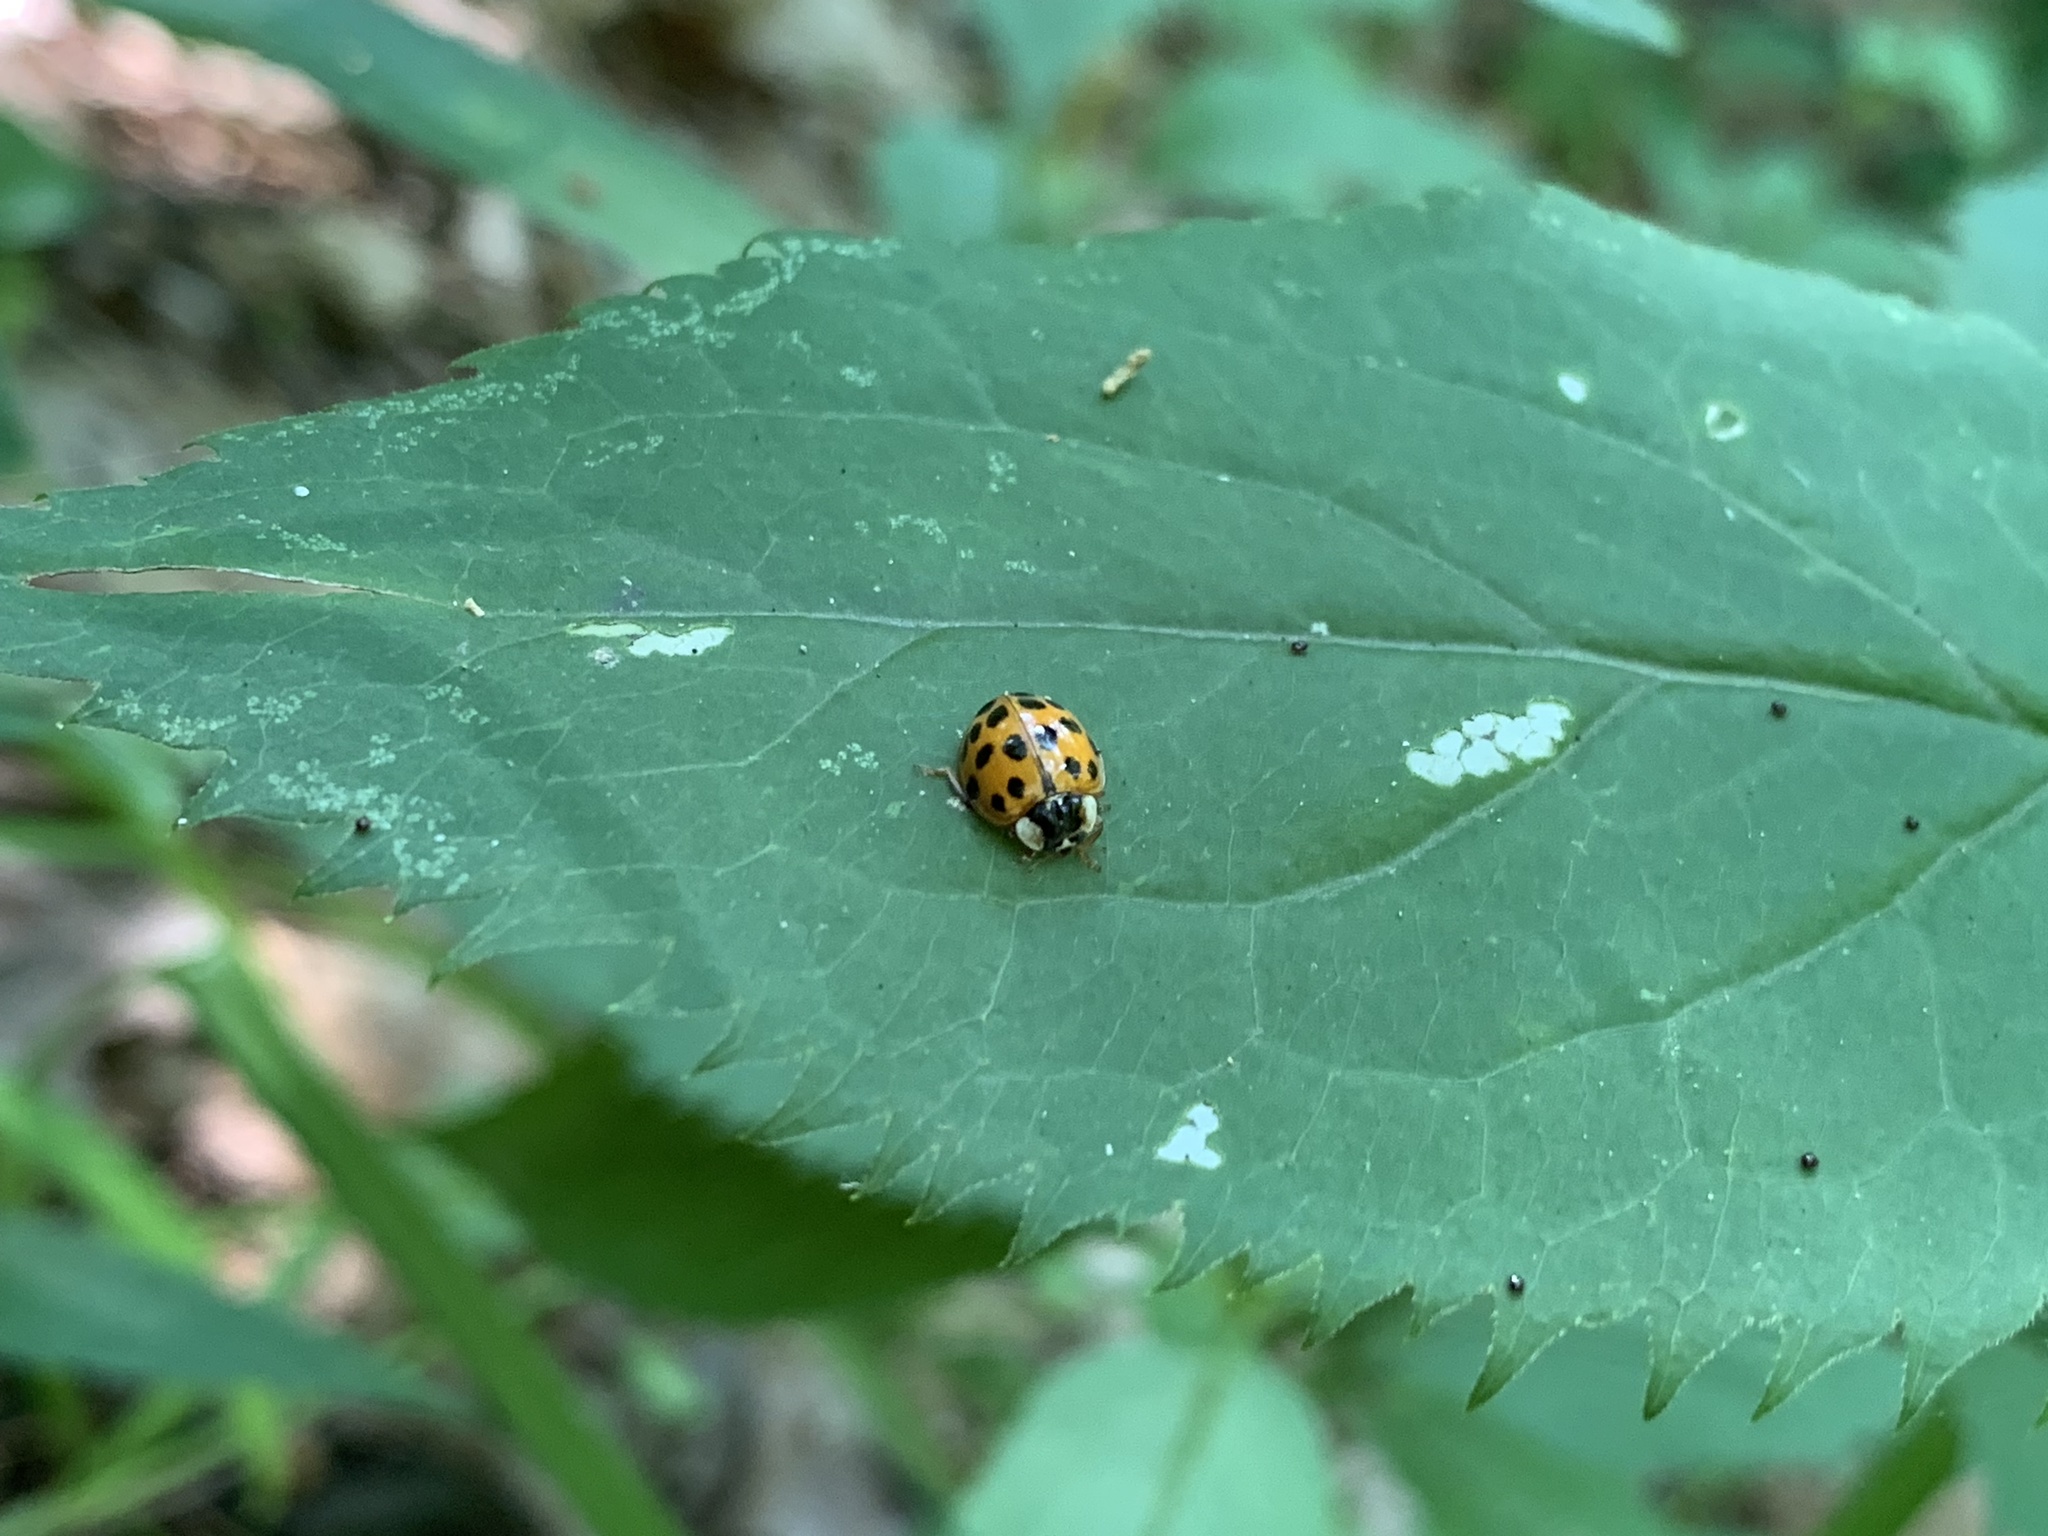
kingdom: Animalia
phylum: Arthropoda
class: Insecta
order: Coleoptera
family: Coccinellidae
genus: Harmonia
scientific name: Harmonia axyridis
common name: Harlequin ladybird
